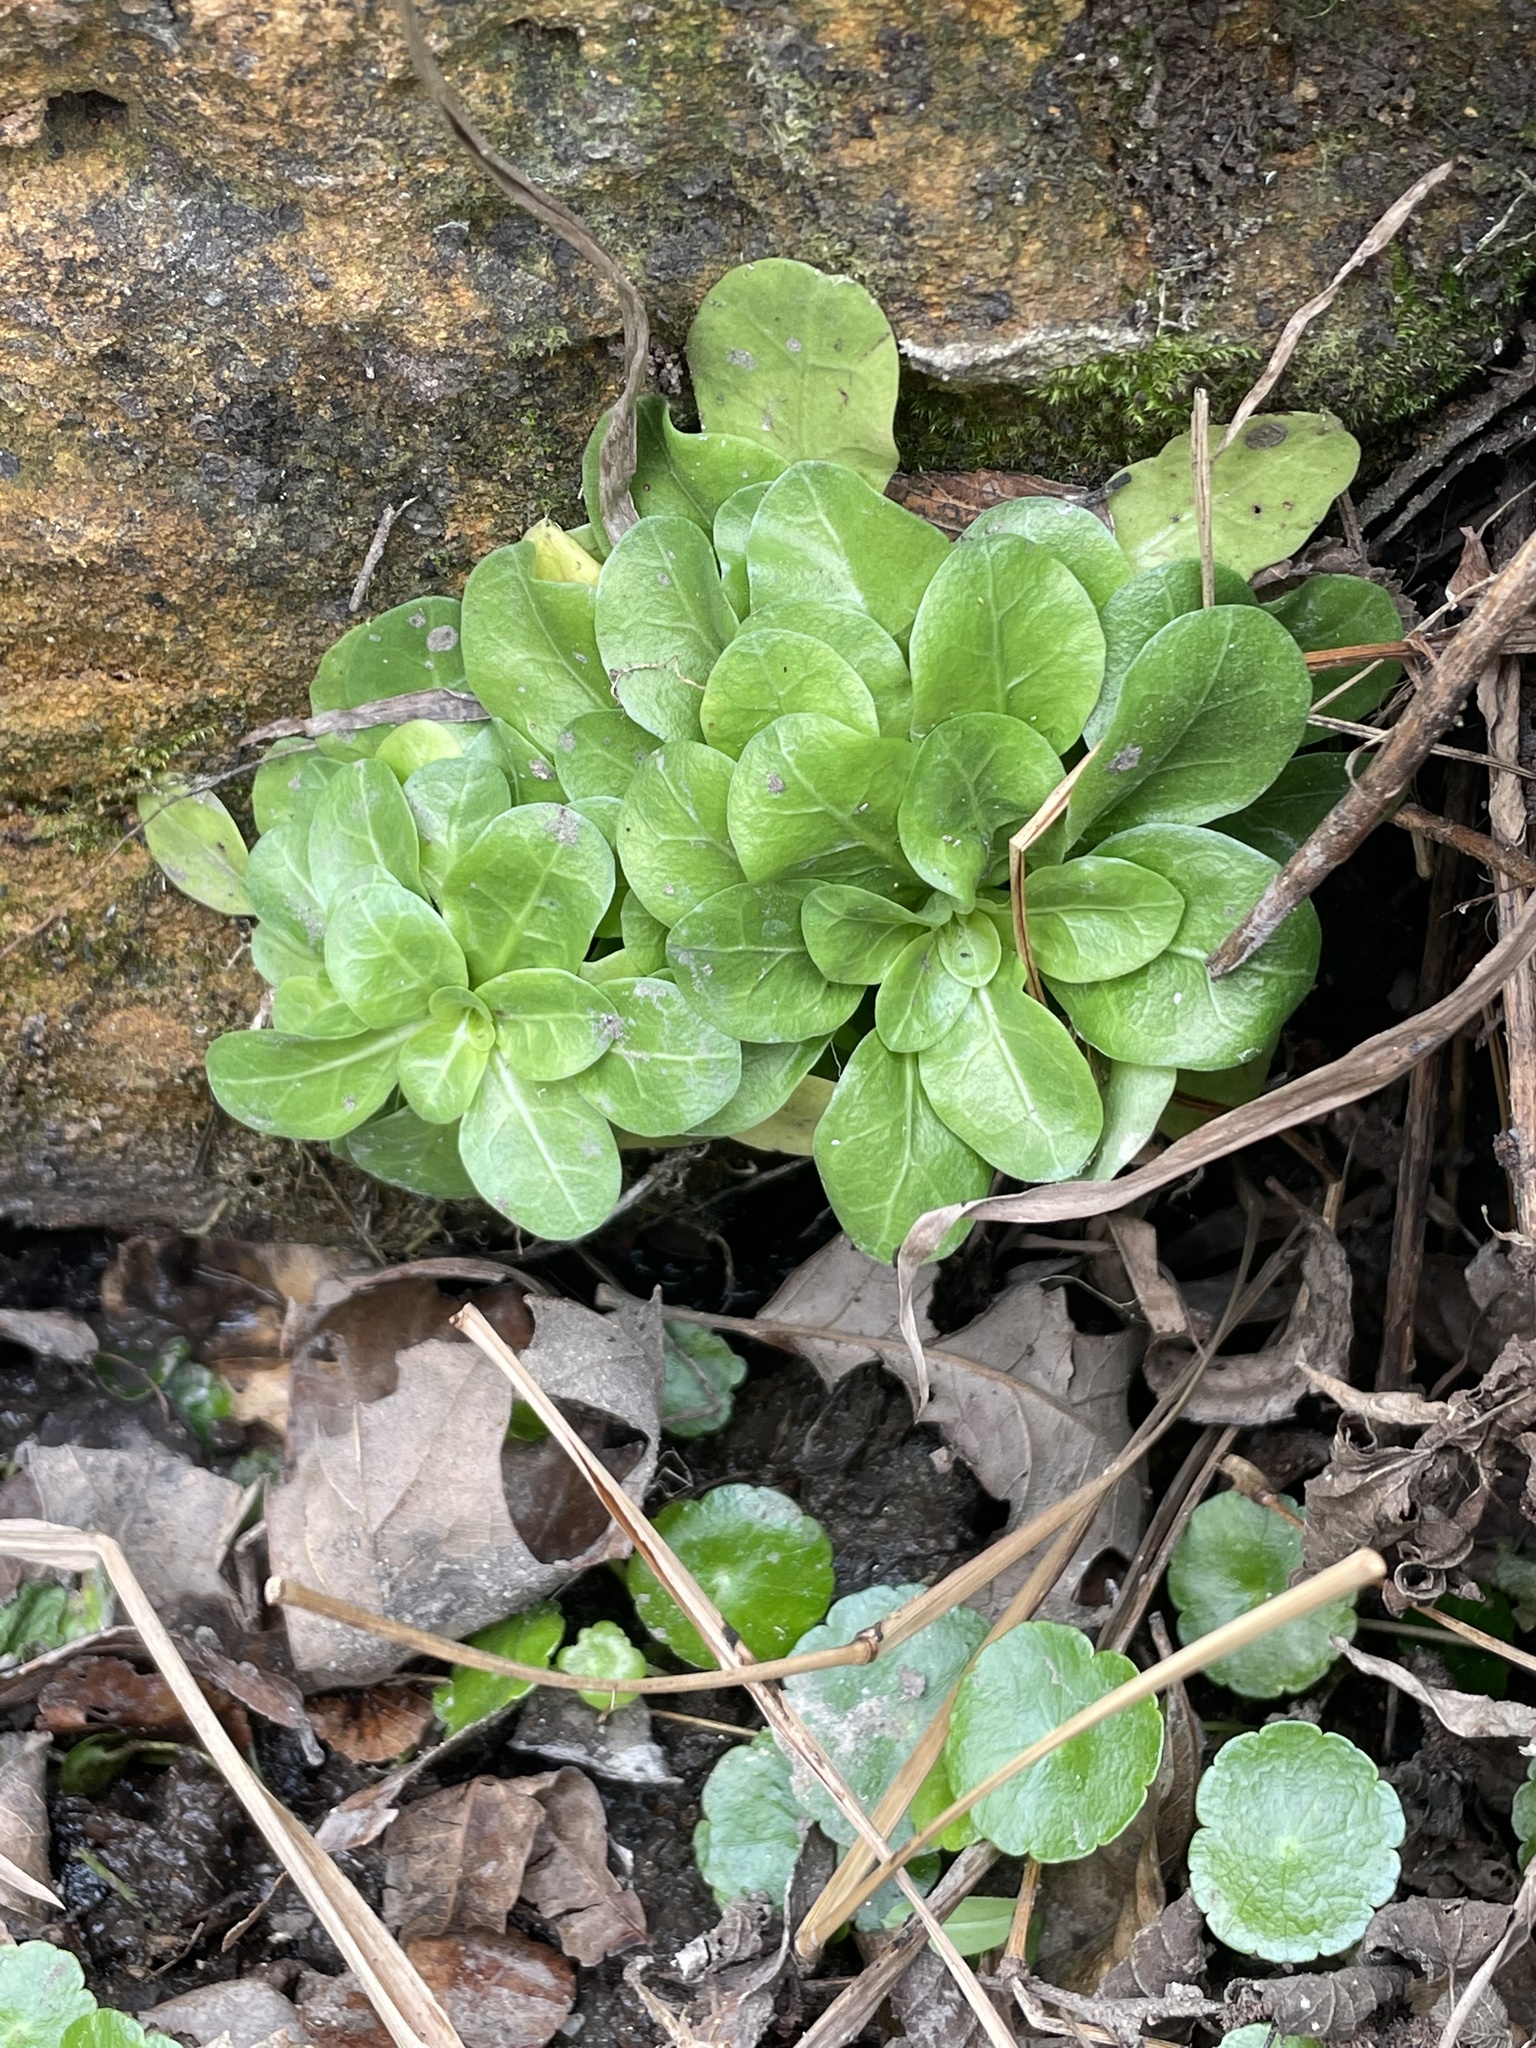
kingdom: Plantae
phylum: Tracheophyta
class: Magnoliopsida
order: Ericales
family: Primulaceae
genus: Samolus
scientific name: Samolus parviflorus
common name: False water pimpernel
